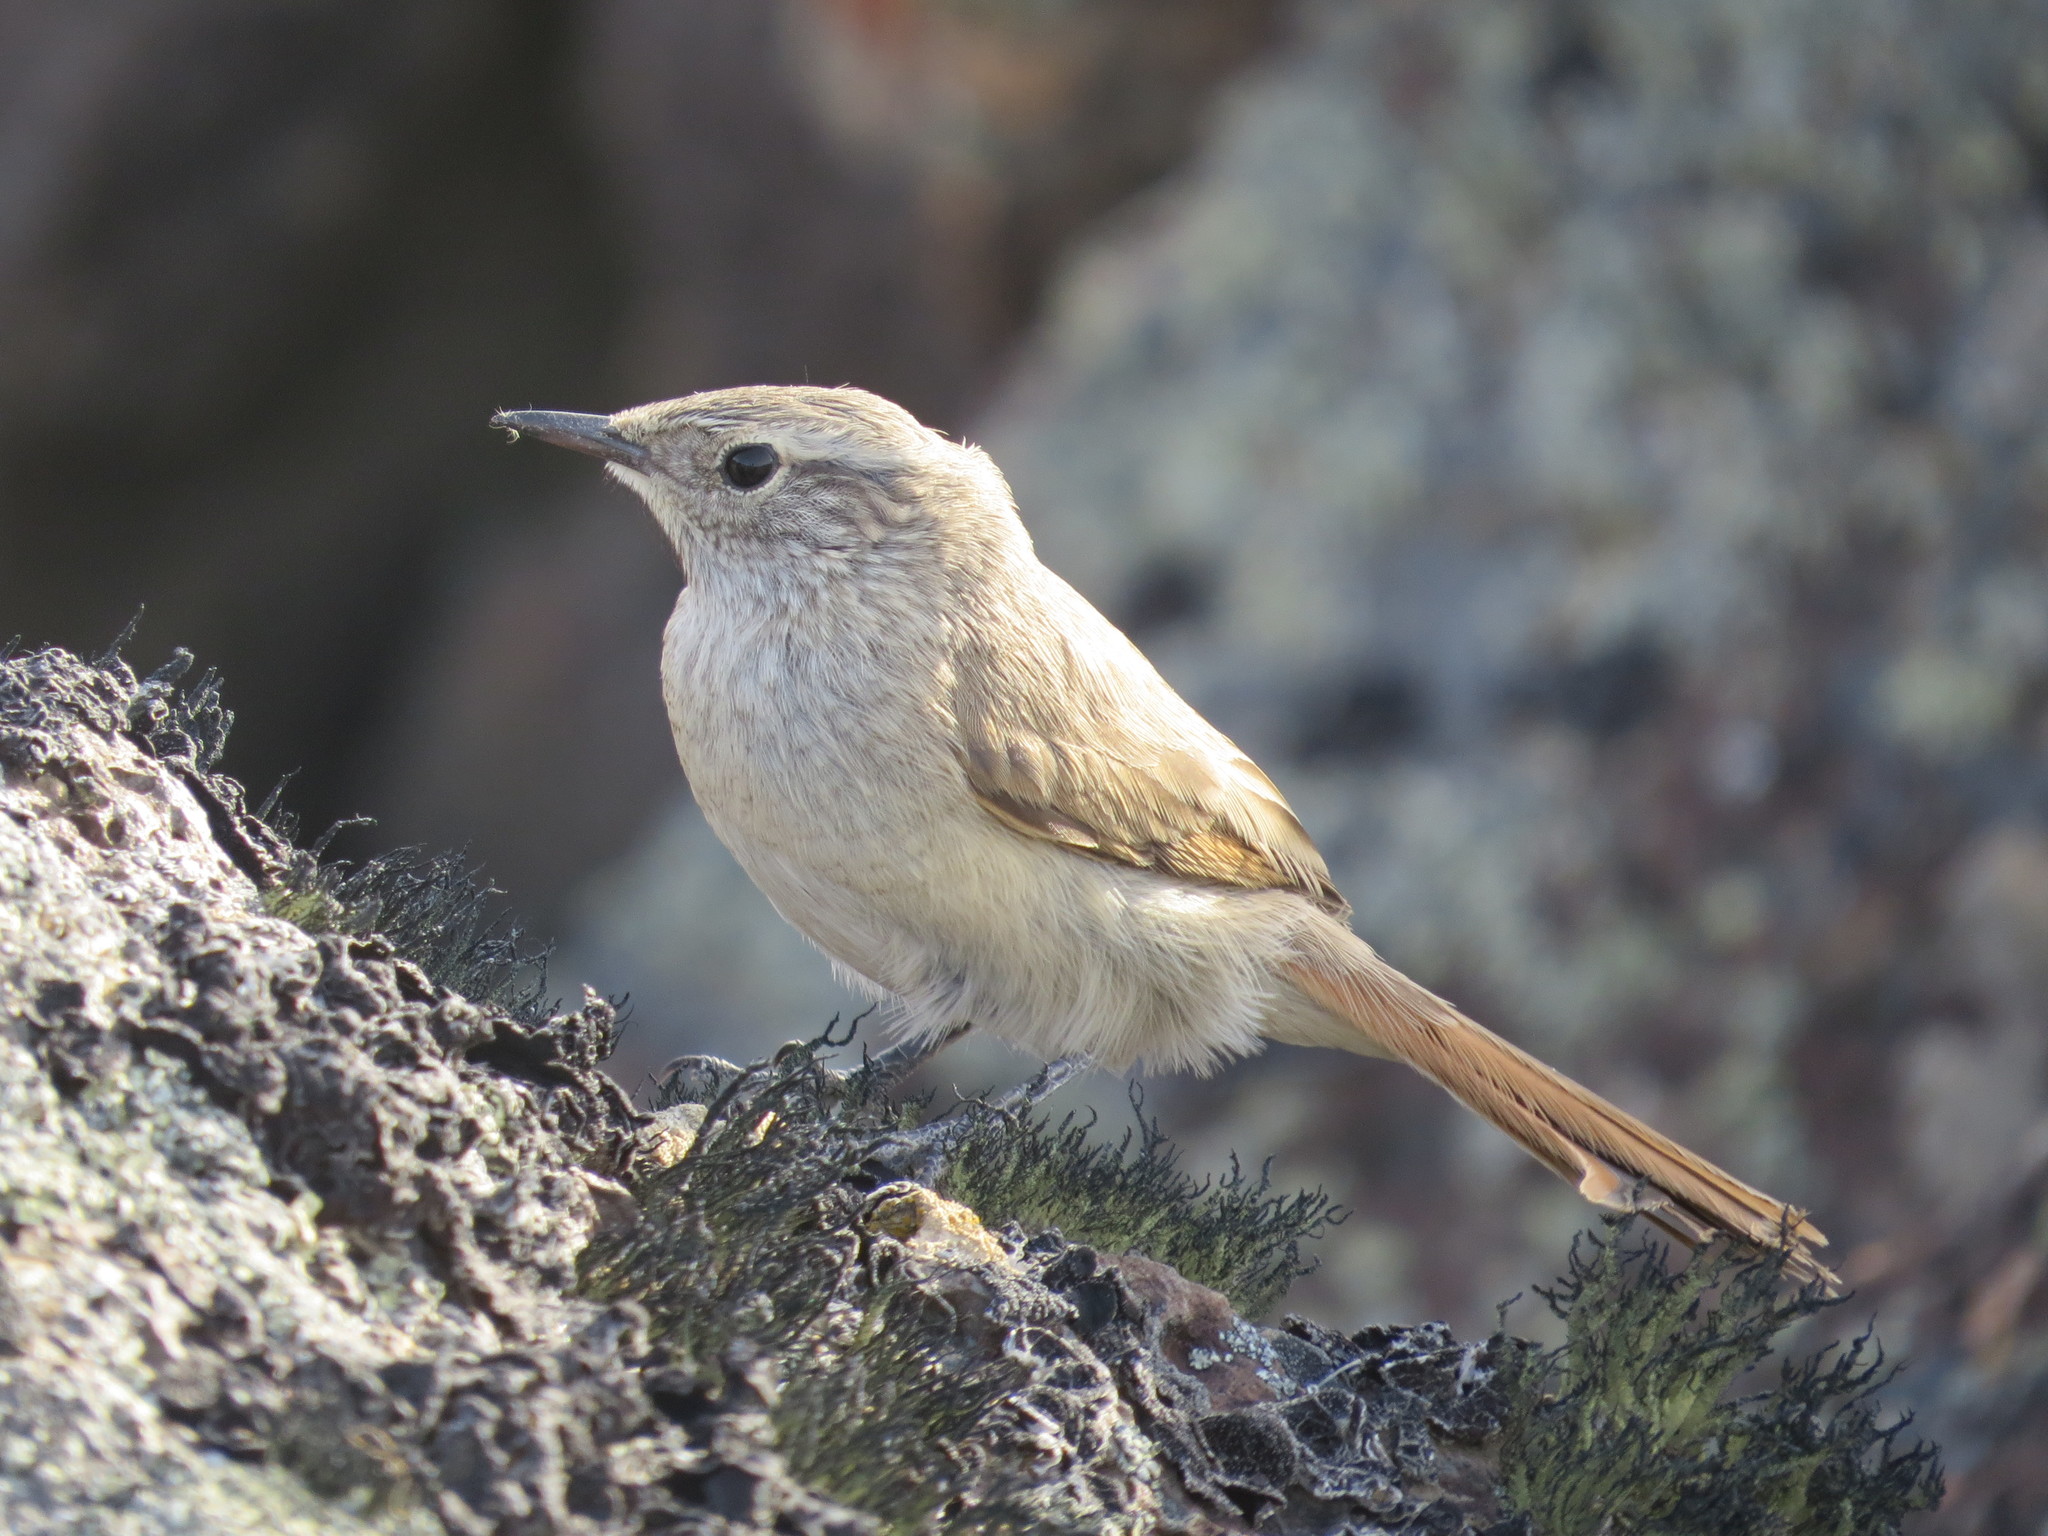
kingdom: Animalia
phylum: Chordata
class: Aves
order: Passeriformes
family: Furnariidae
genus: Asthenes
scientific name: Asthenes modesta
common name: Cordilleran canastero
